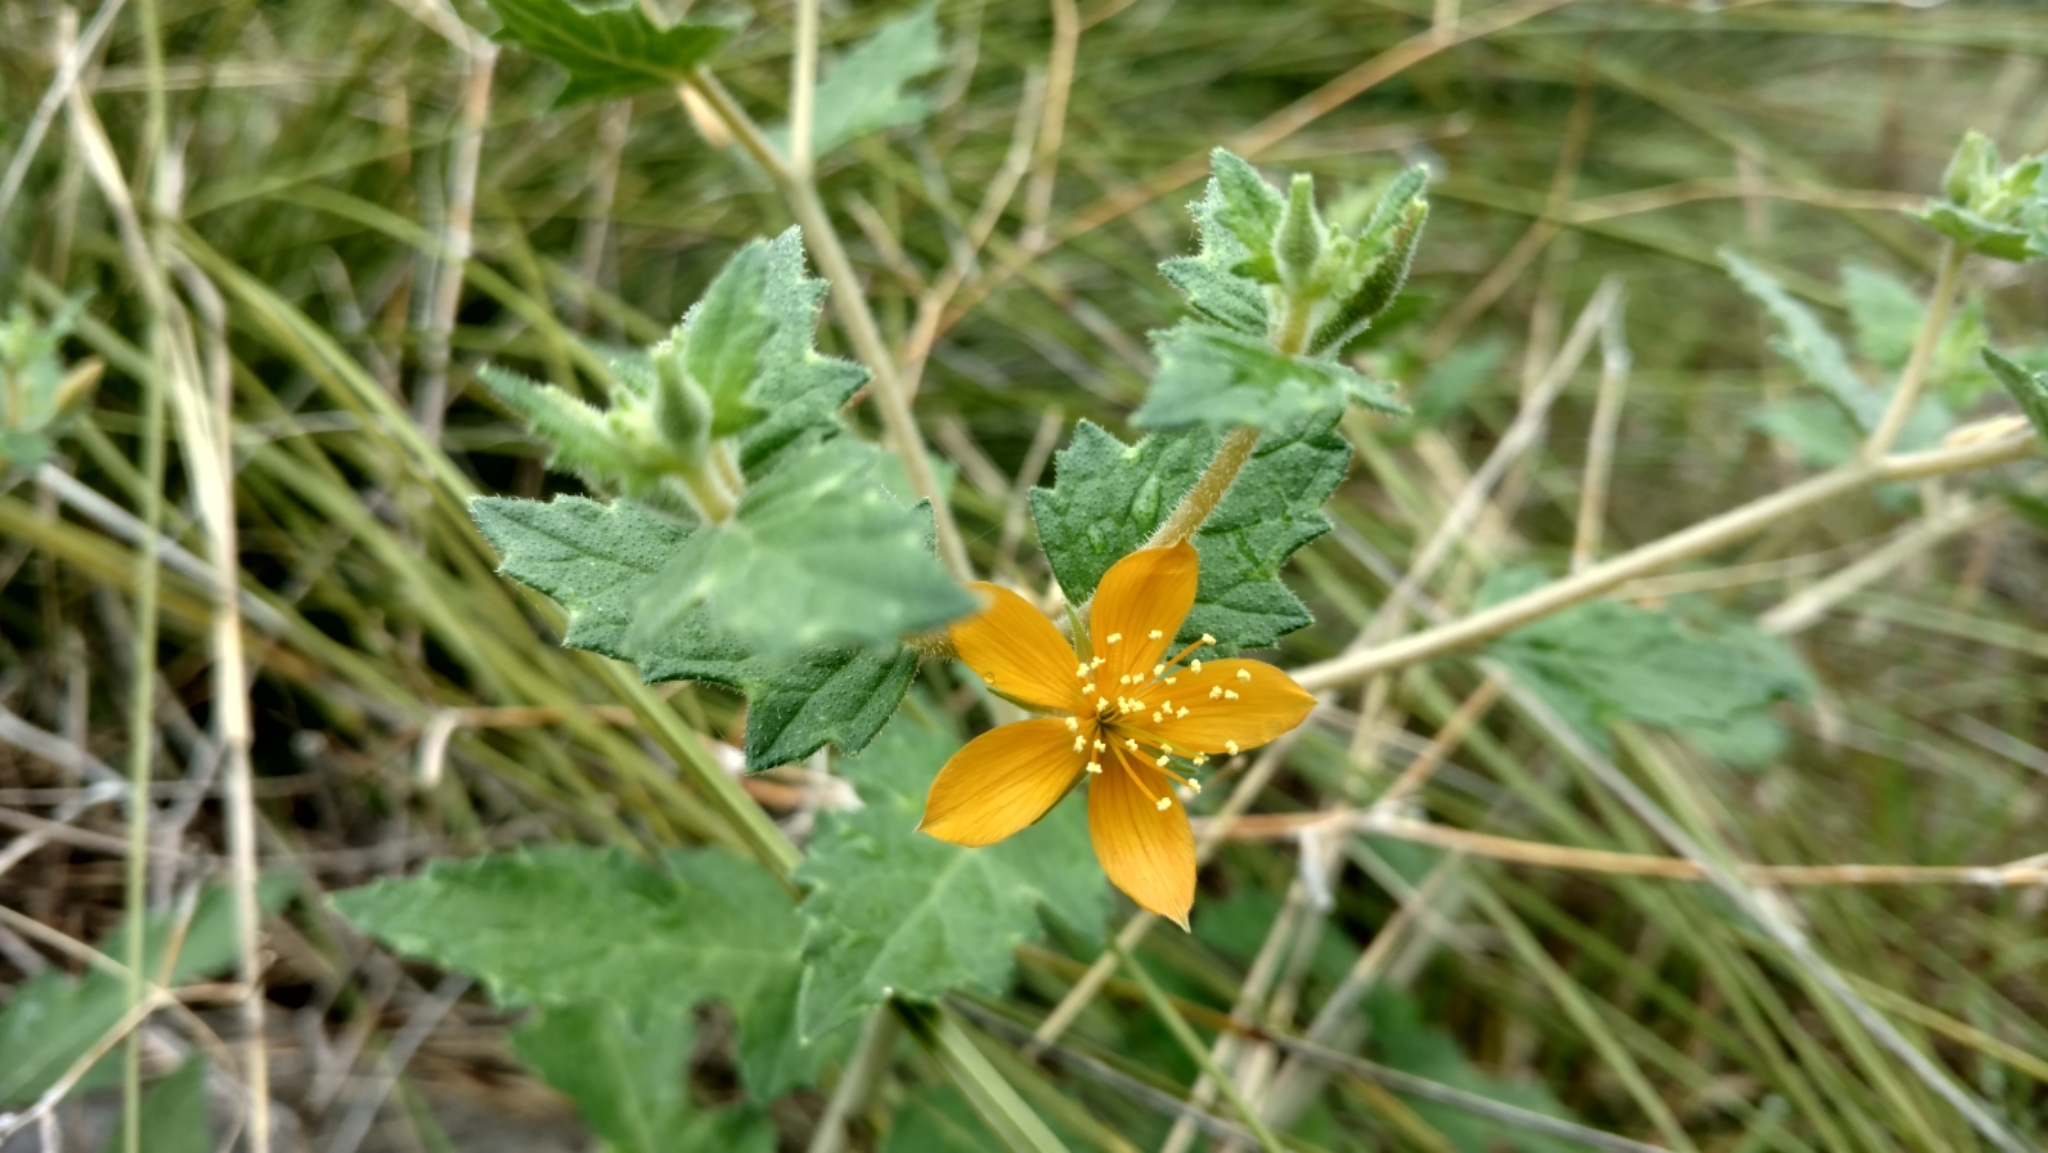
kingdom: Plantae
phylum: Tracheophyta
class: Magnoliopsida
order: Cornales
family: Loasaceae
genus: Mentzelia
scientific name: Mentzelia oligosperma
